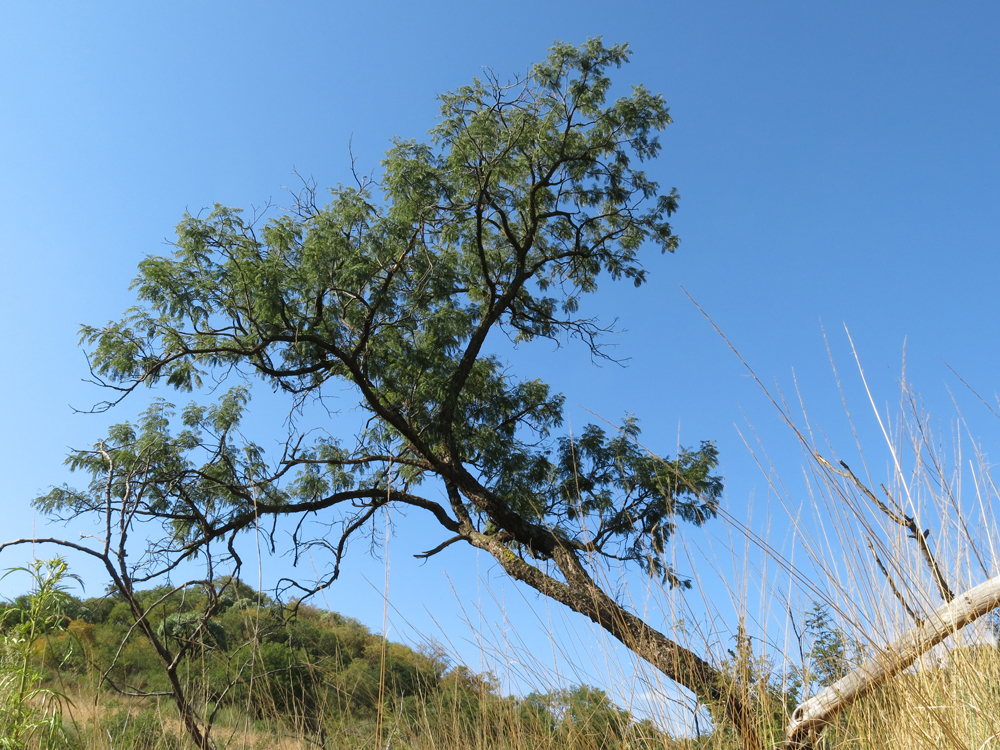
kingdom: Plantae
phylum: Tracheophyta
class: Magnoliopsida
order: Fabales
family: Fabaceae
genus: Senegalia
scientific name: Senegalia caffra
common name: Cat thorn
